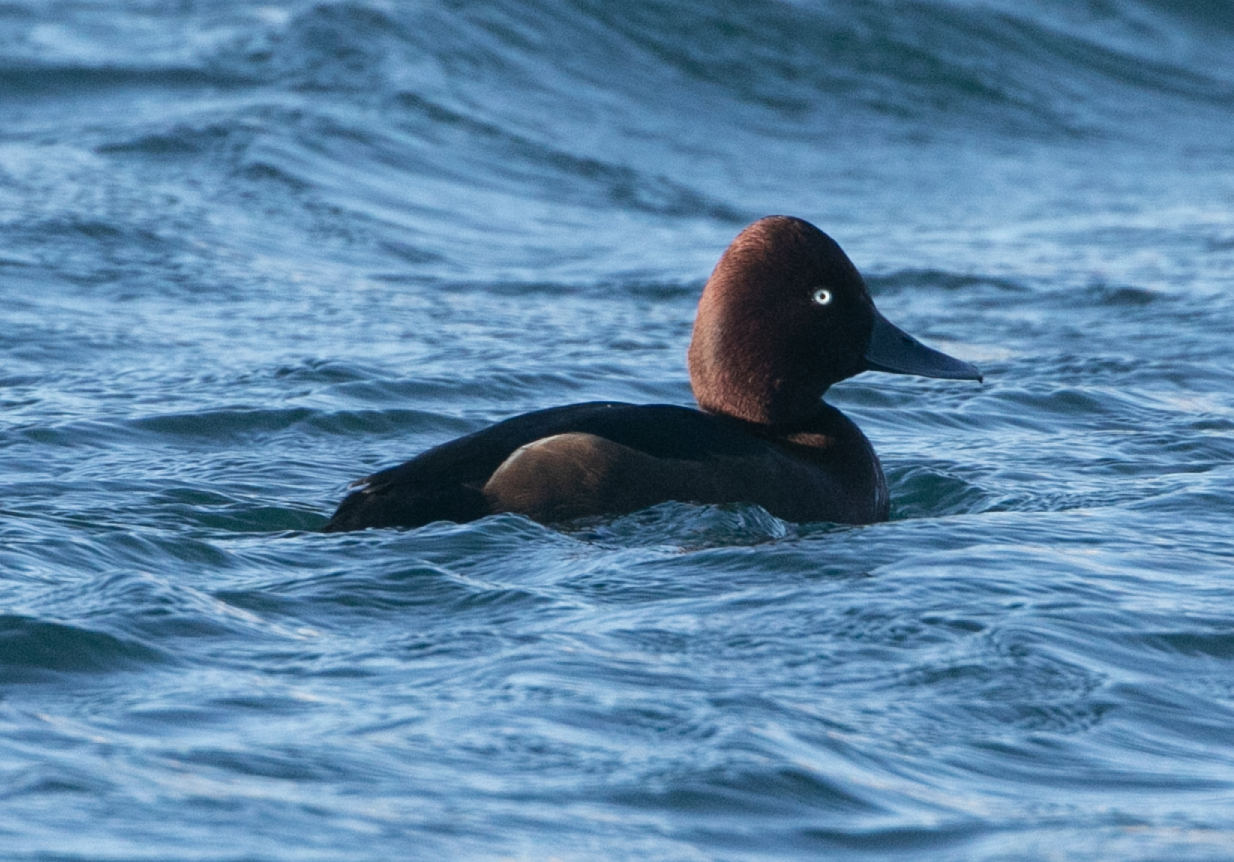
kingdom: Animalia
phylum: Chordata
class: Aves
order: Anseriformes
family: Anatidae
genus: Aythya
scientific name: Aythya nyroca
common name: Ferruginous duck
